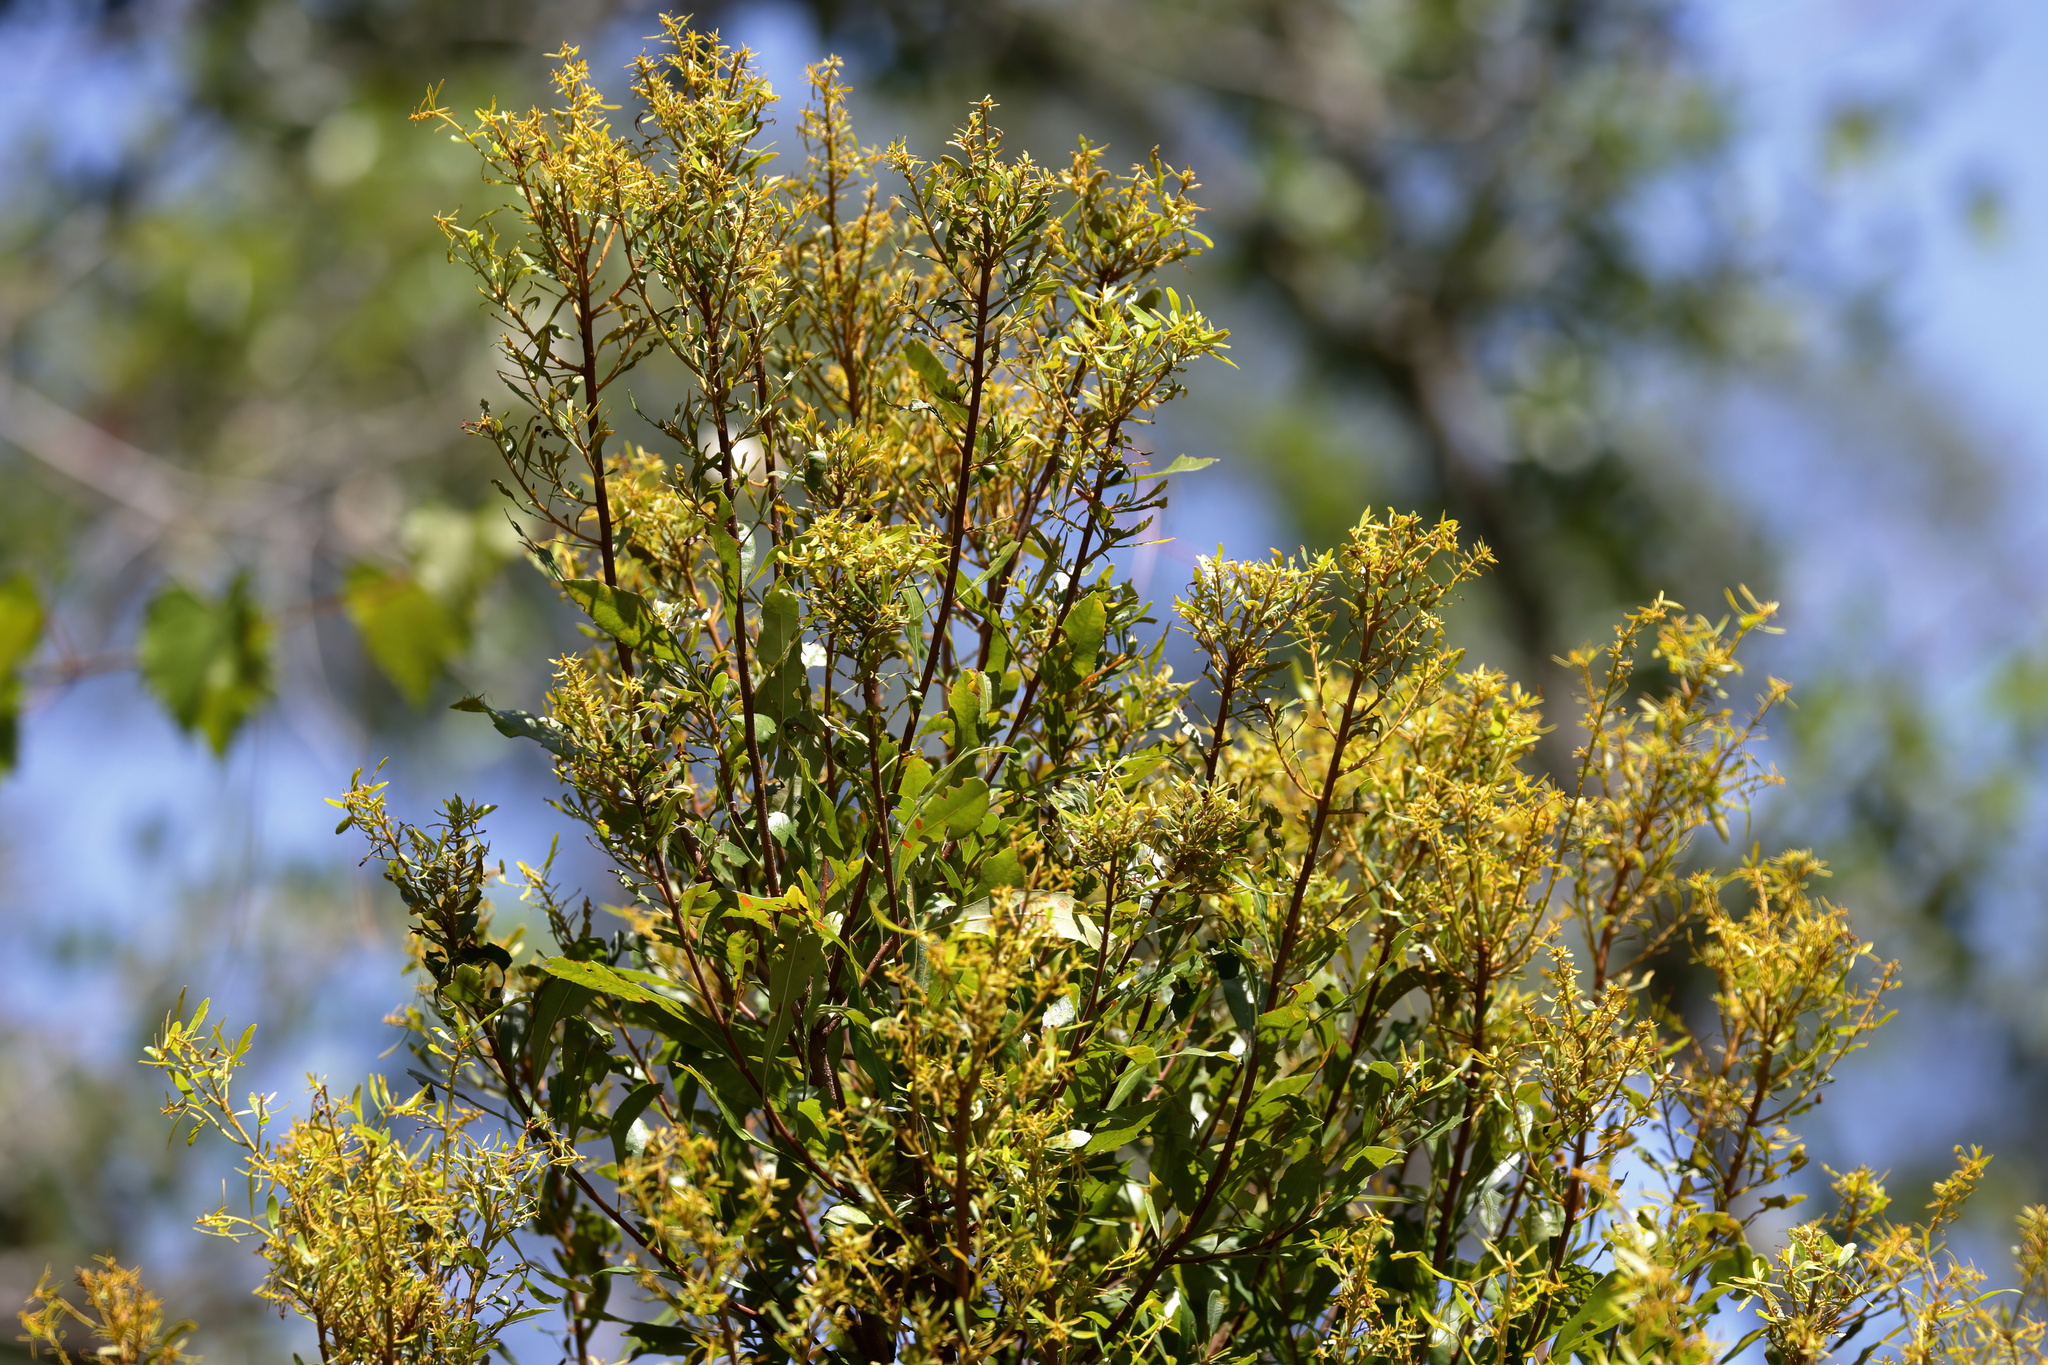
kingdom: Plantae
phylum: Tracheophyta
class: Magnoliopsida
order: Fagales
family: Myricaceae
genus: Morella
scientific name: Morella cerifera
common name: Wax myrtle
